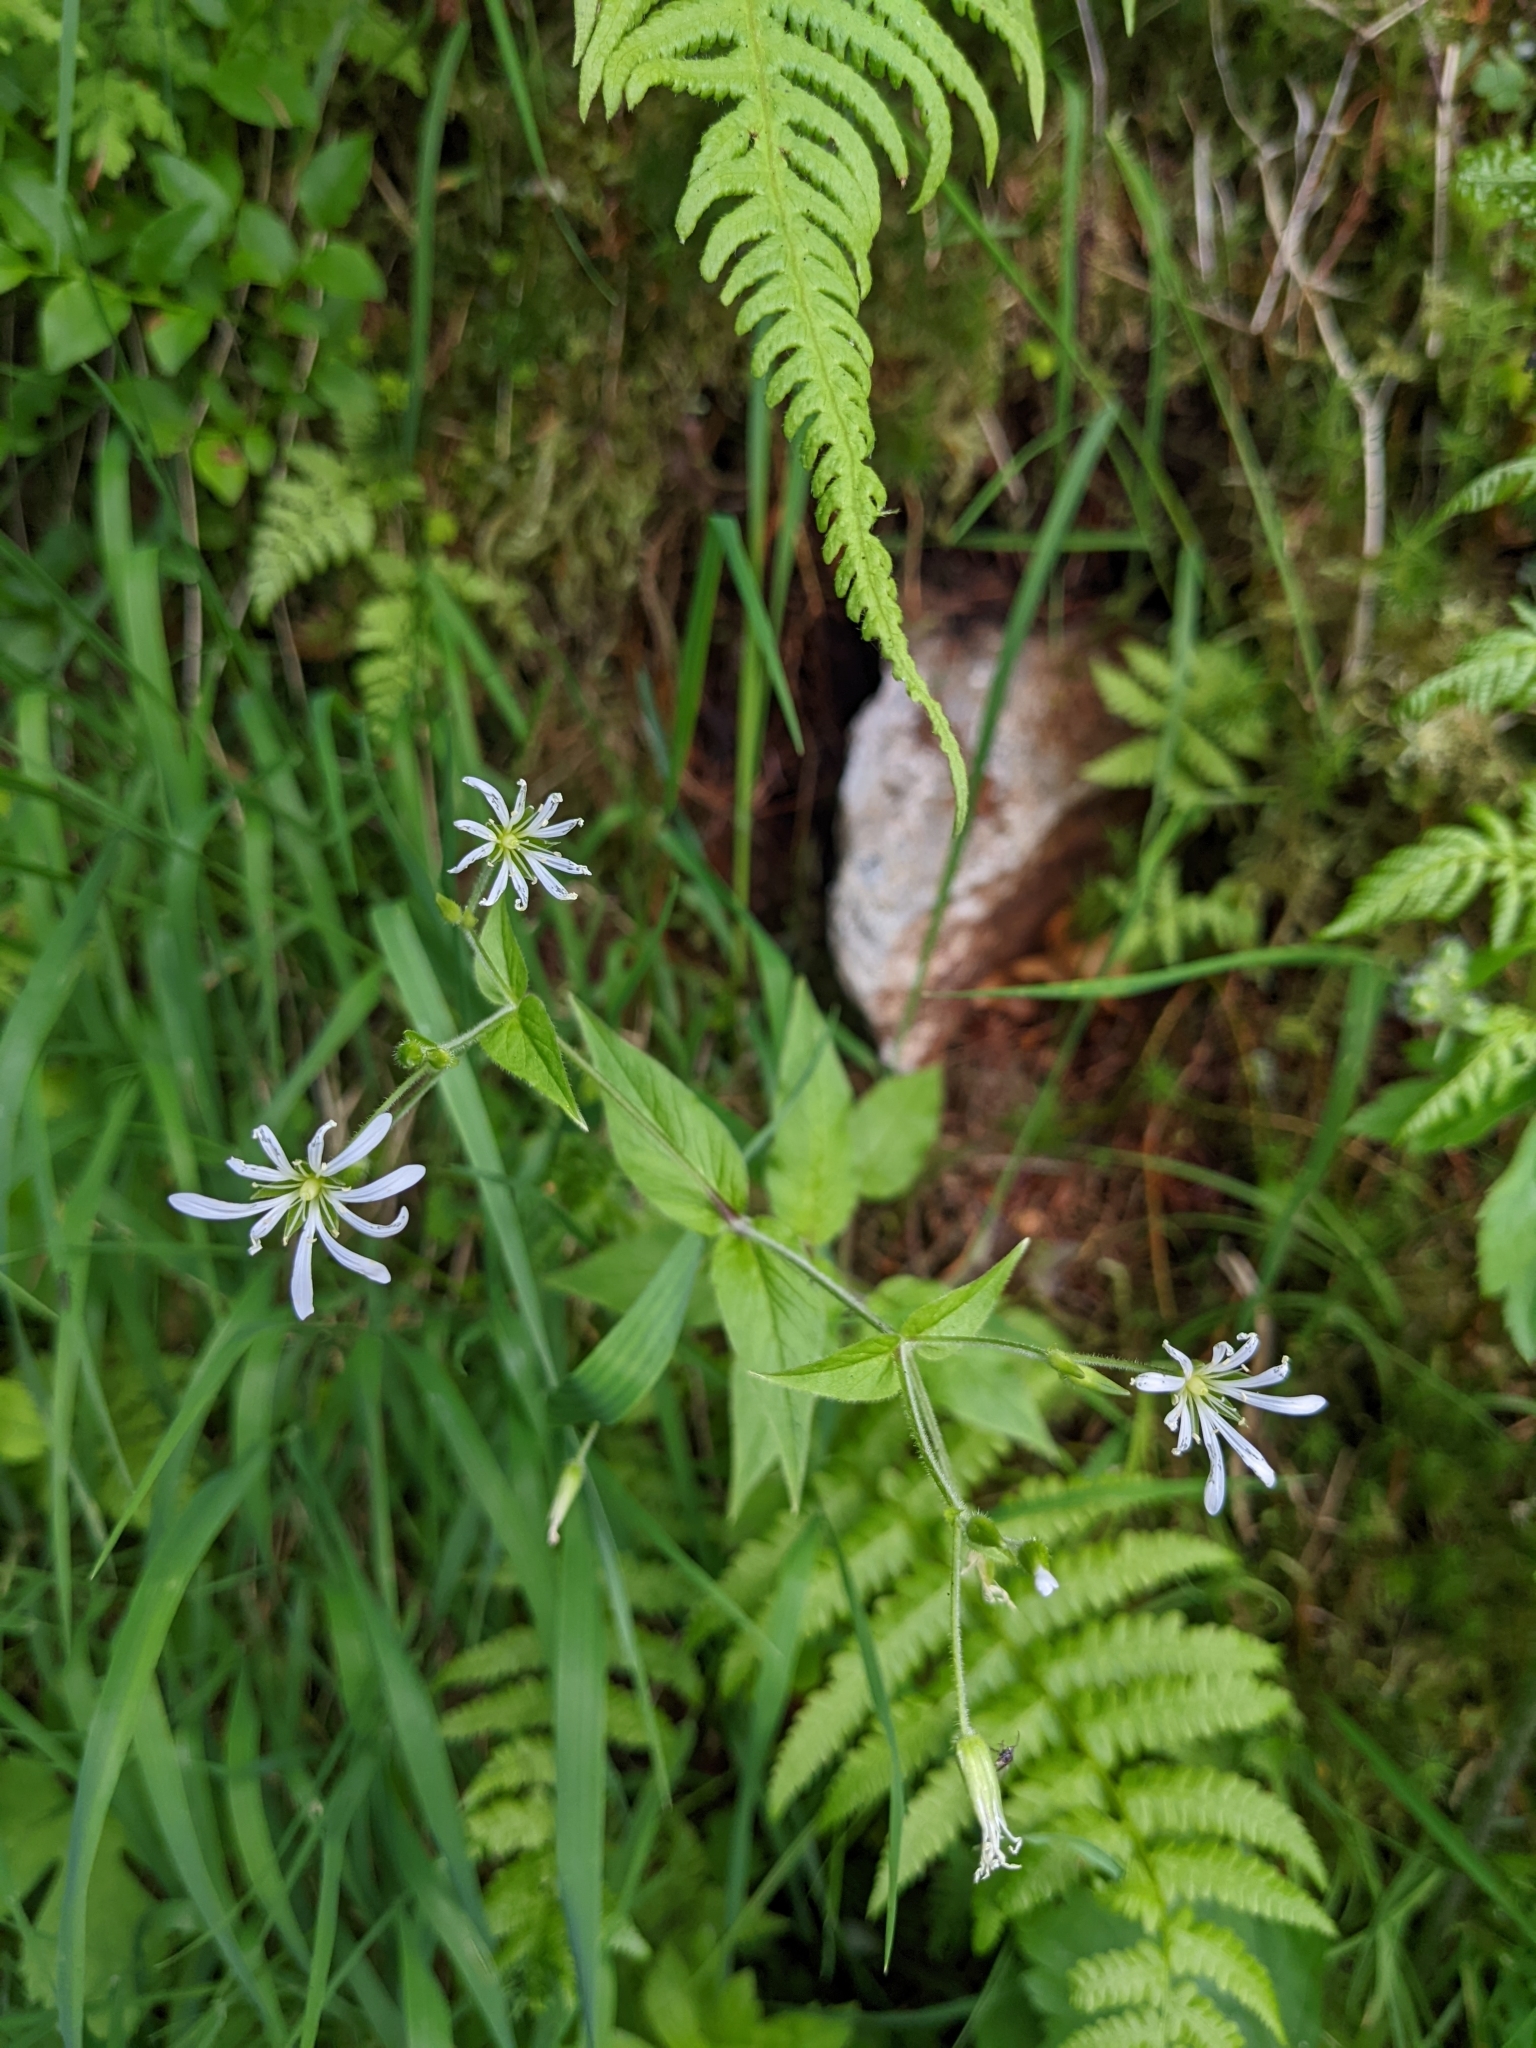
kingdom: Plantae
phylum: Tracheophyta
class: Magnoliopsida
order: Caryophyllales
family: Caryophyllaceae
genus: Stellaria
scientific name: Stellaria nemorum
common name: Wood stitchwort
